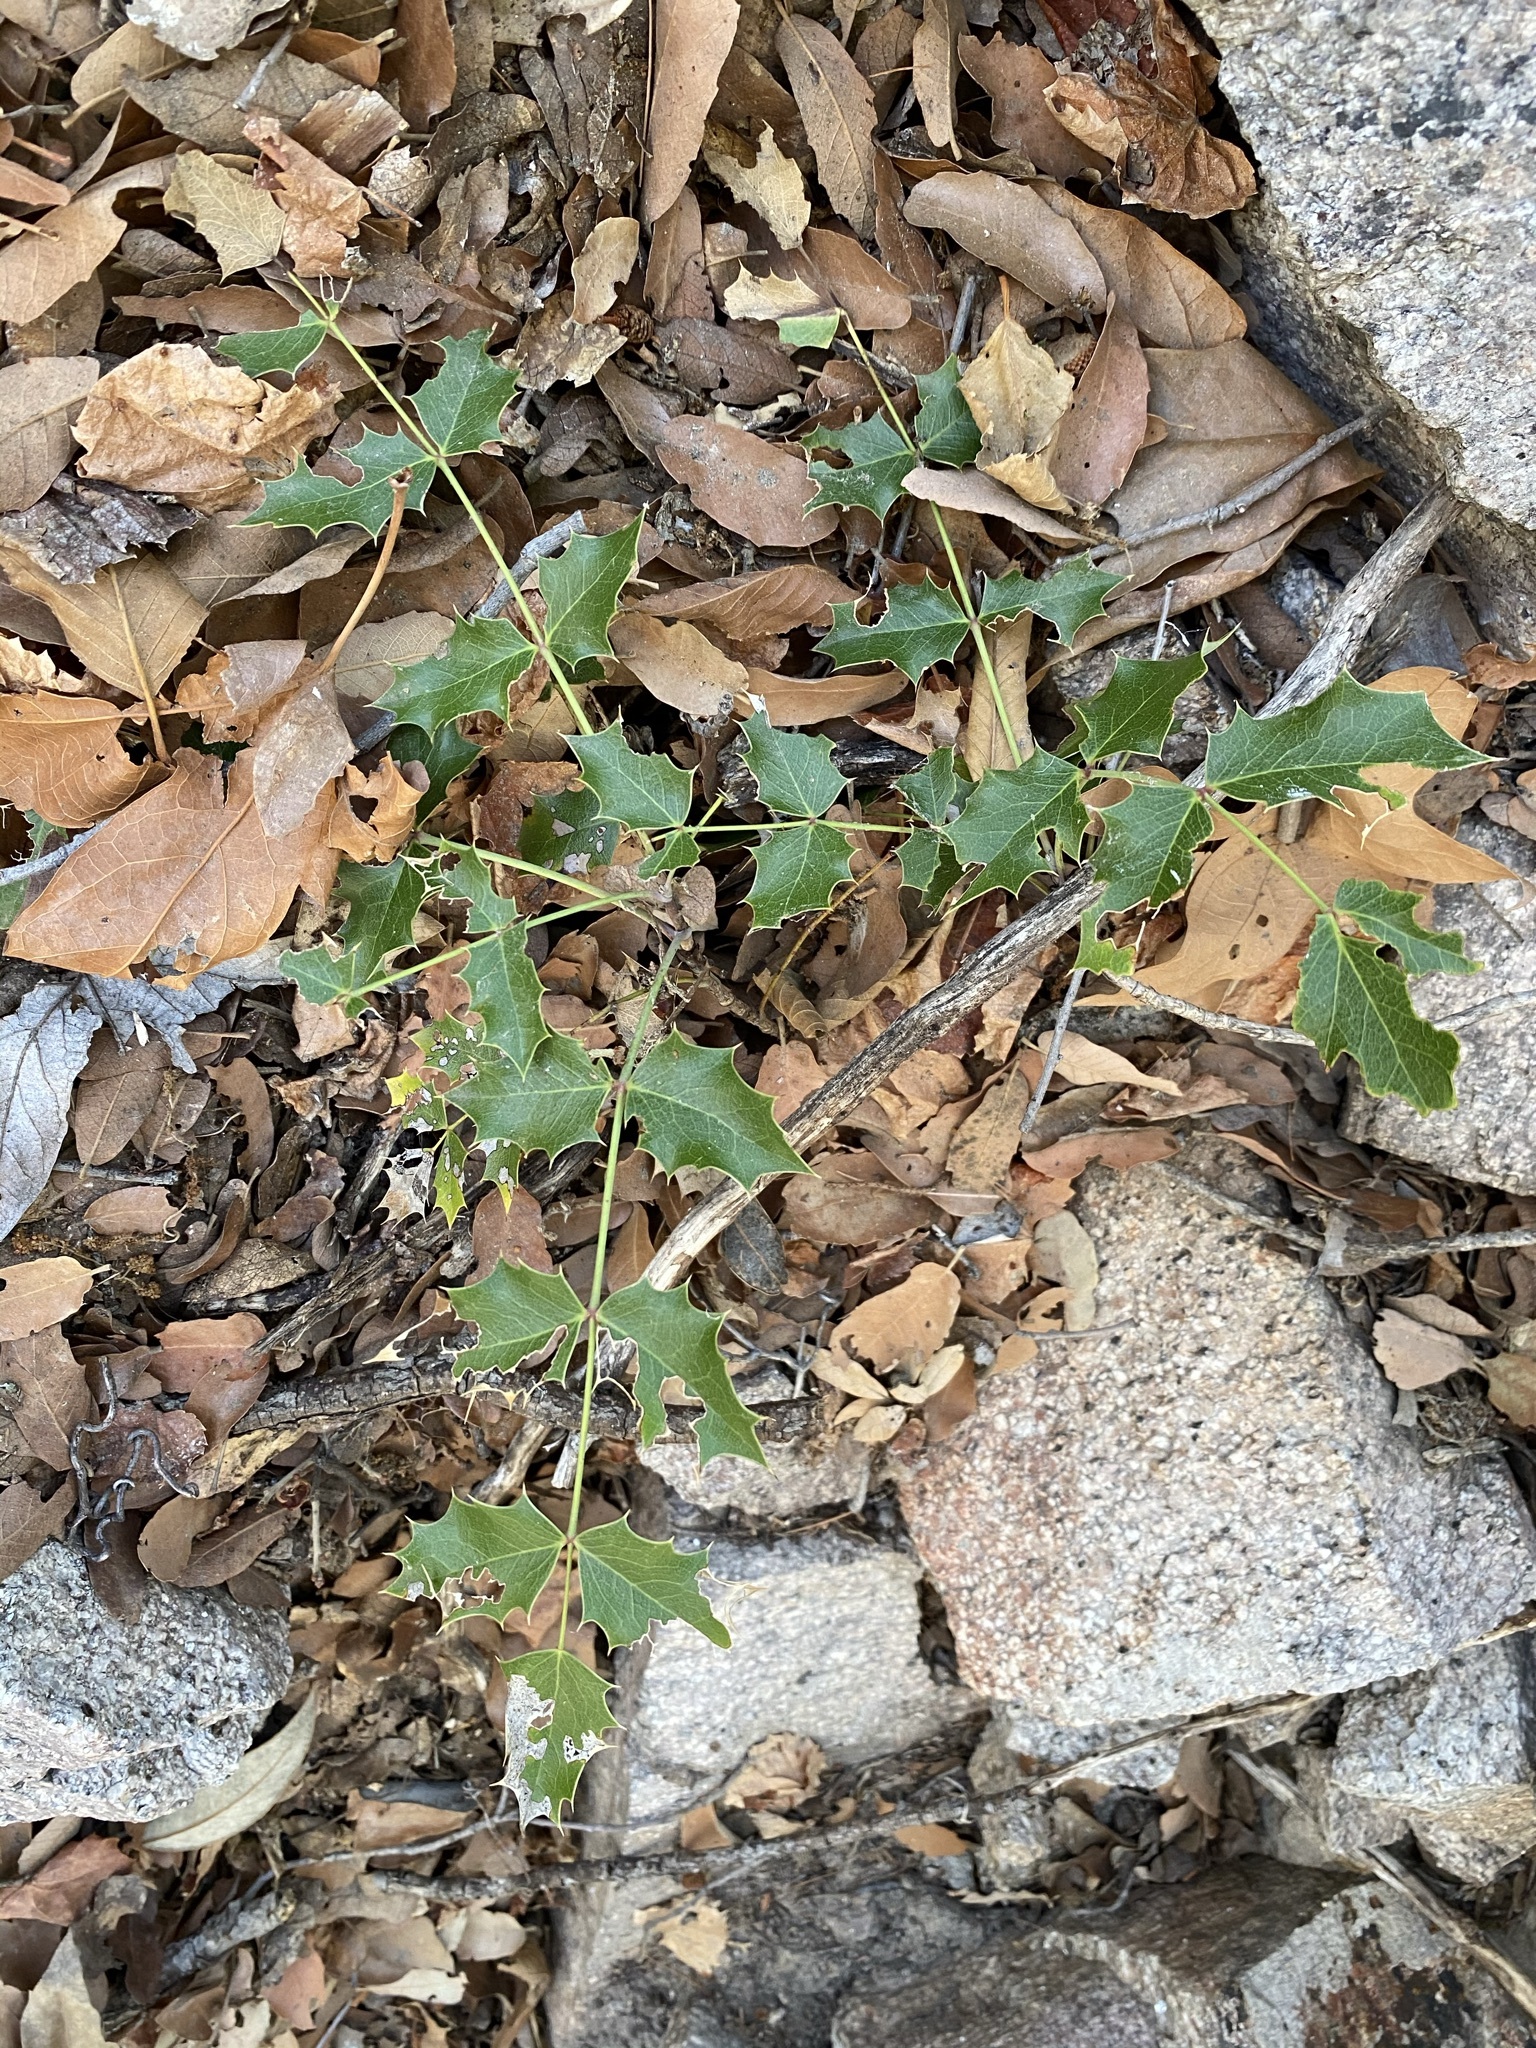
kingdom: Plantae
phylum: Tracheophyta
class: Magnoliopsida
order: Ranunculales
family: Berberidaceae
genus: Mahonia
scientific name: Mahonia wilcoxii
